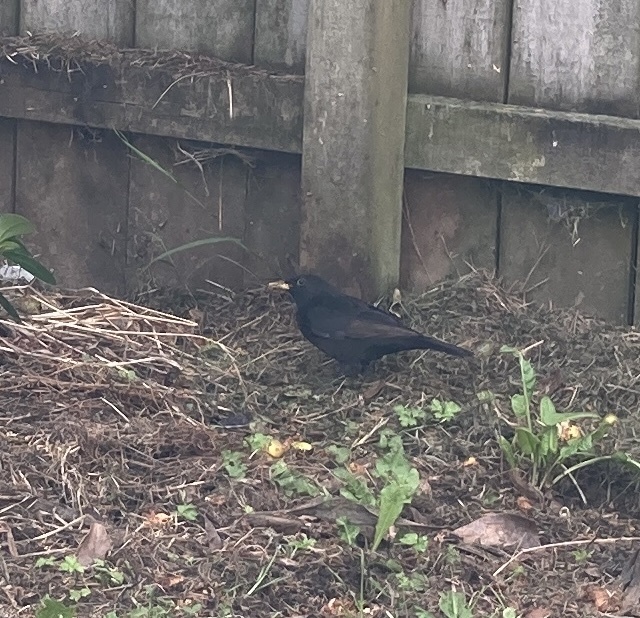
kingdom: Animalia
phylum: Chordata
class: Aves
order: Passeriformes
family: Turdidae
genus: Turdus
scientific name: Turdus merula
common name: Common blackbird
